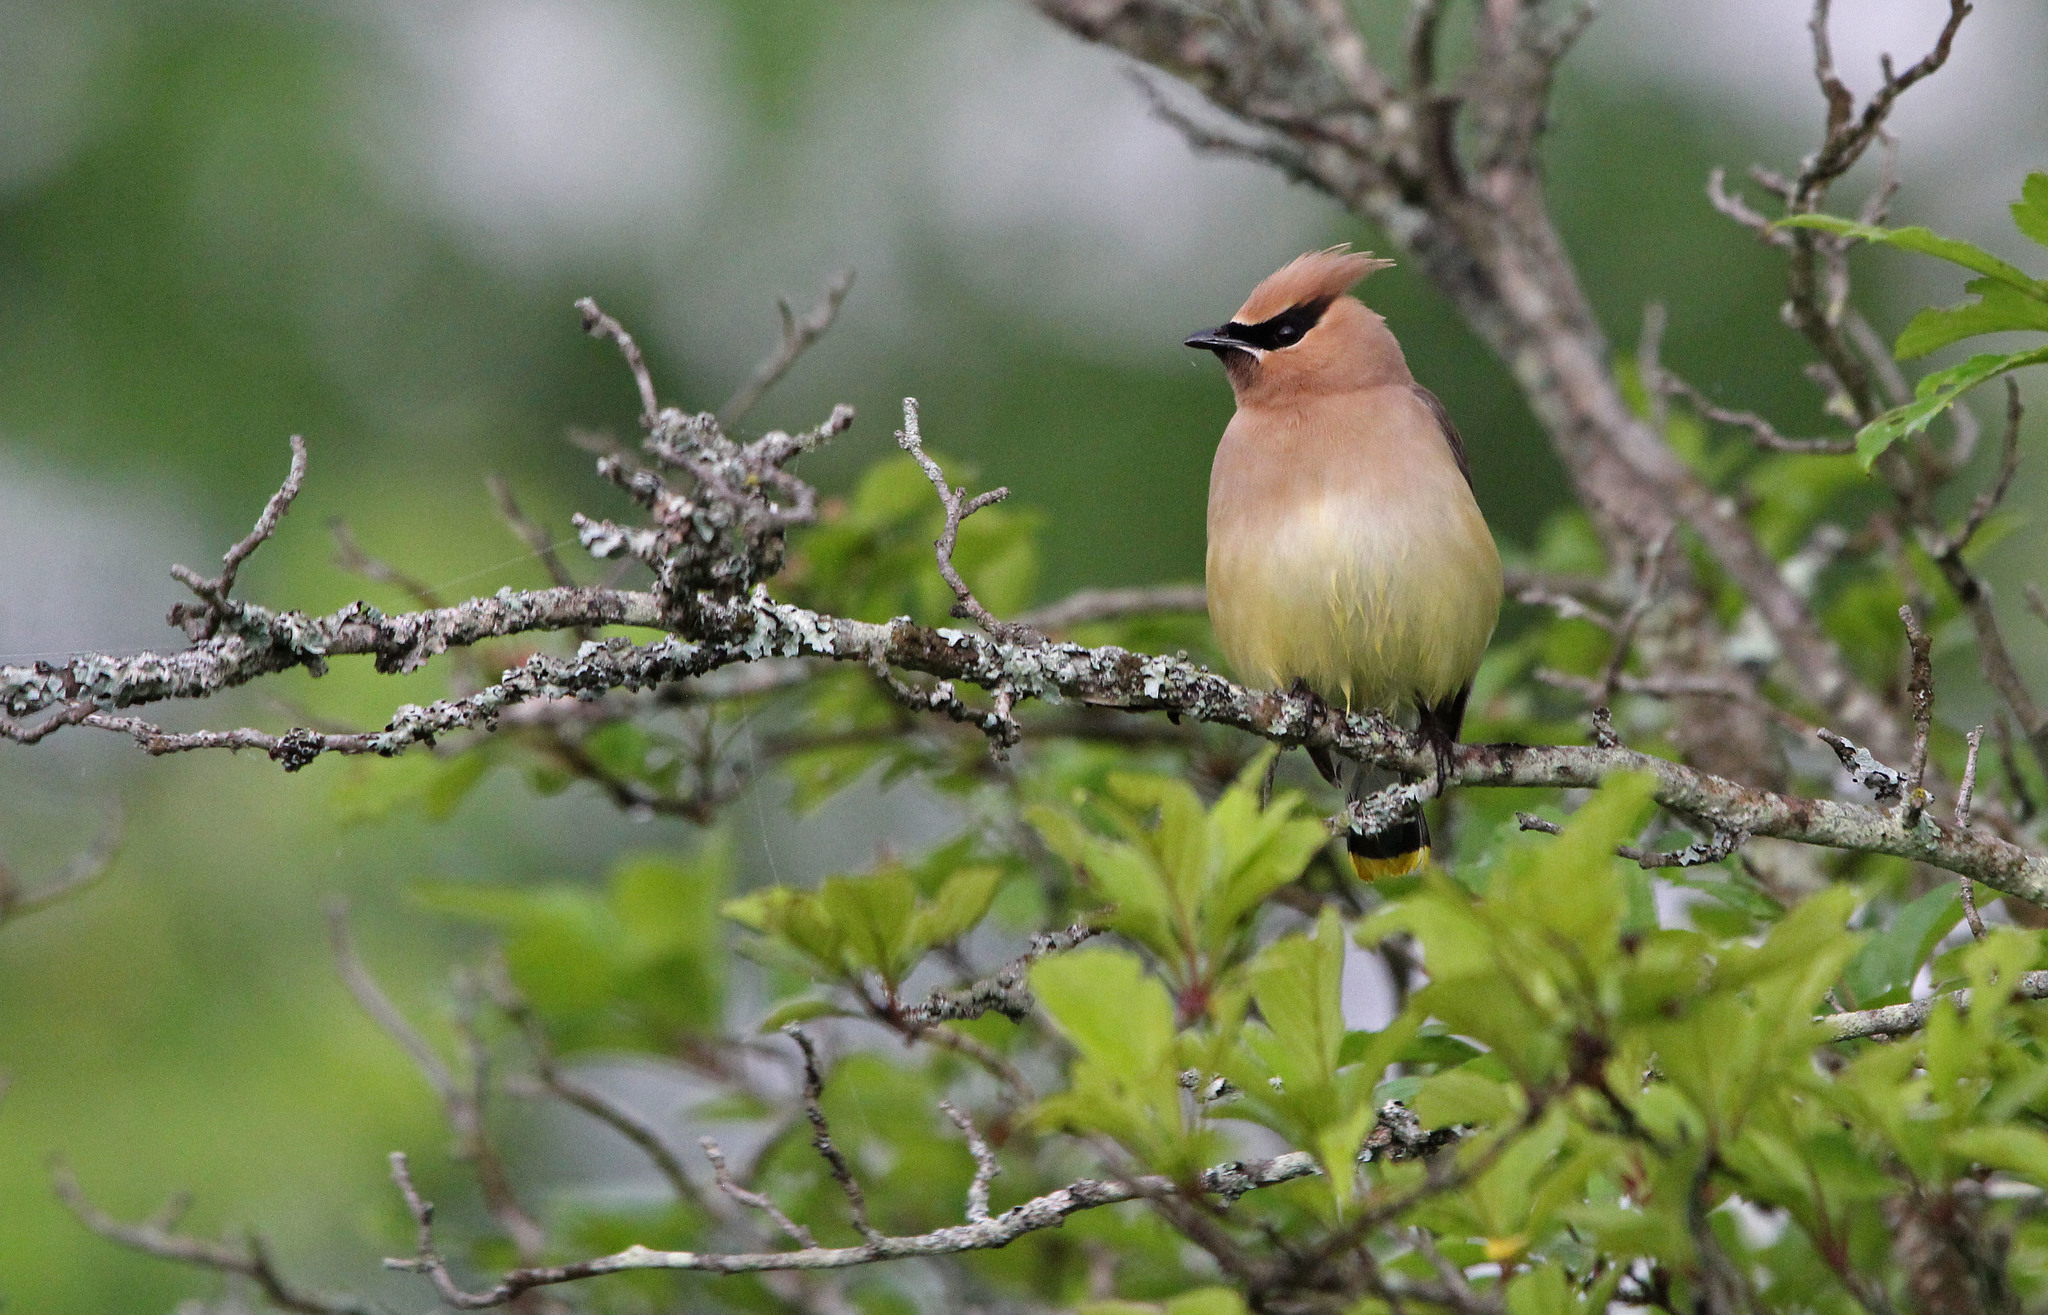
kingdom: Animalia
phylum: Chordata
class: Aves
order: Passeriformes
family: Bombycillidae
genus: Bombycilla
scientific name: Bombycilla cedrorum
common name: Cedar waxwing
